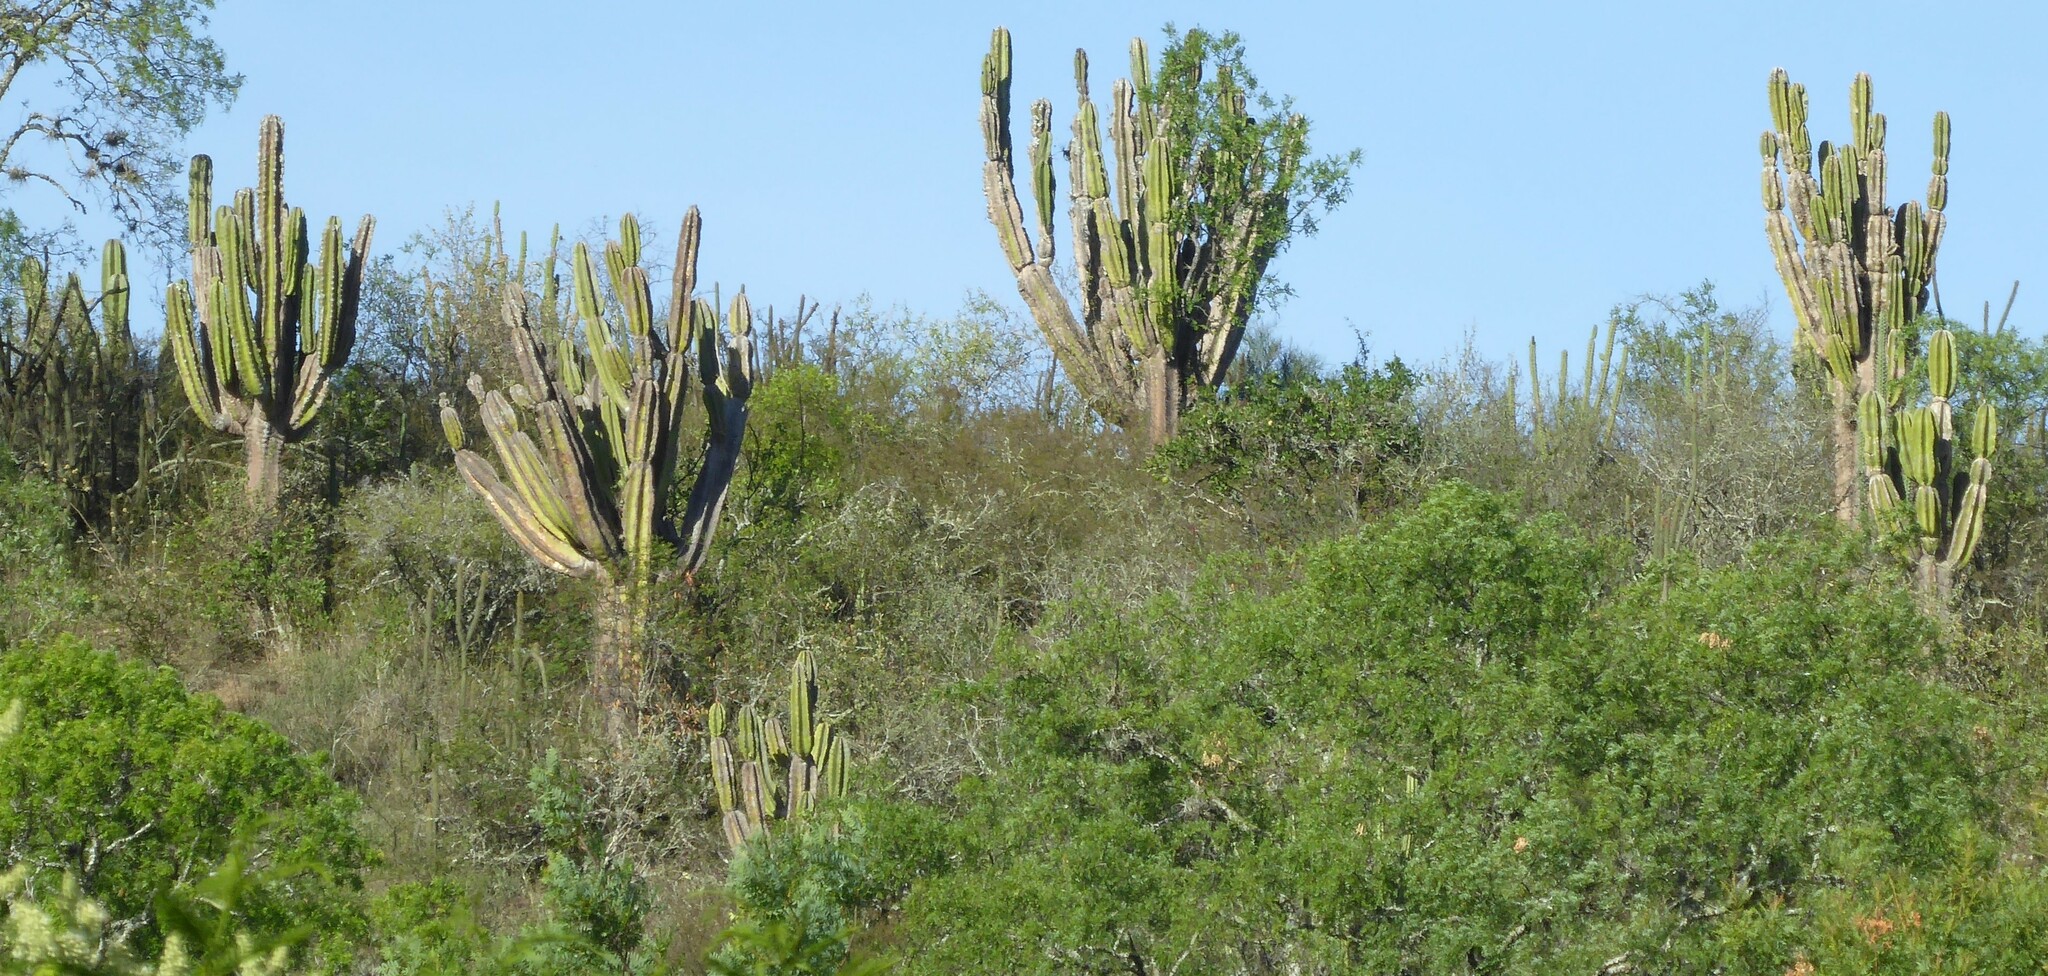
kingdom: Plantae
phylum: Tracheophyta
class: Magnoliopsida
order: Caryophyllales
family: Cactaceae
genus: Neoraimondia
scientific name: Neoraimondia herzogiana
